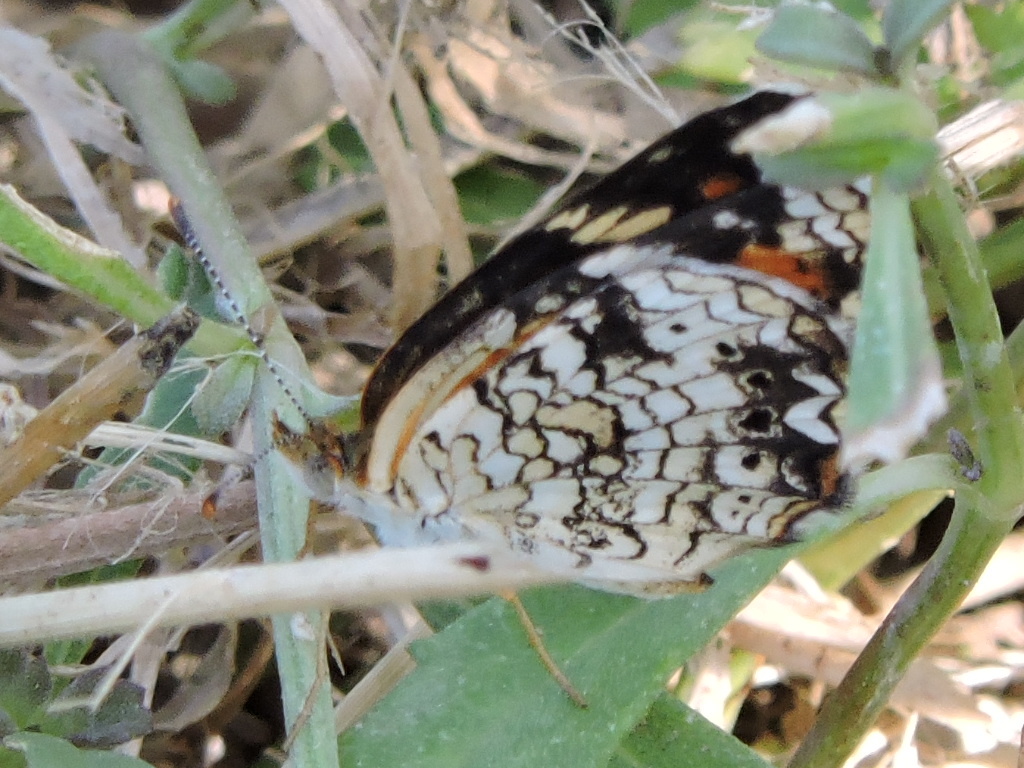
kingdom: Animalia
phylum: Arthropoda
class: Insecta
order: Lepidoptera
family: Nymphalidae
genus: Phyciodes
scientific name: Phyciodes phaon
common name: Phaon crescent
